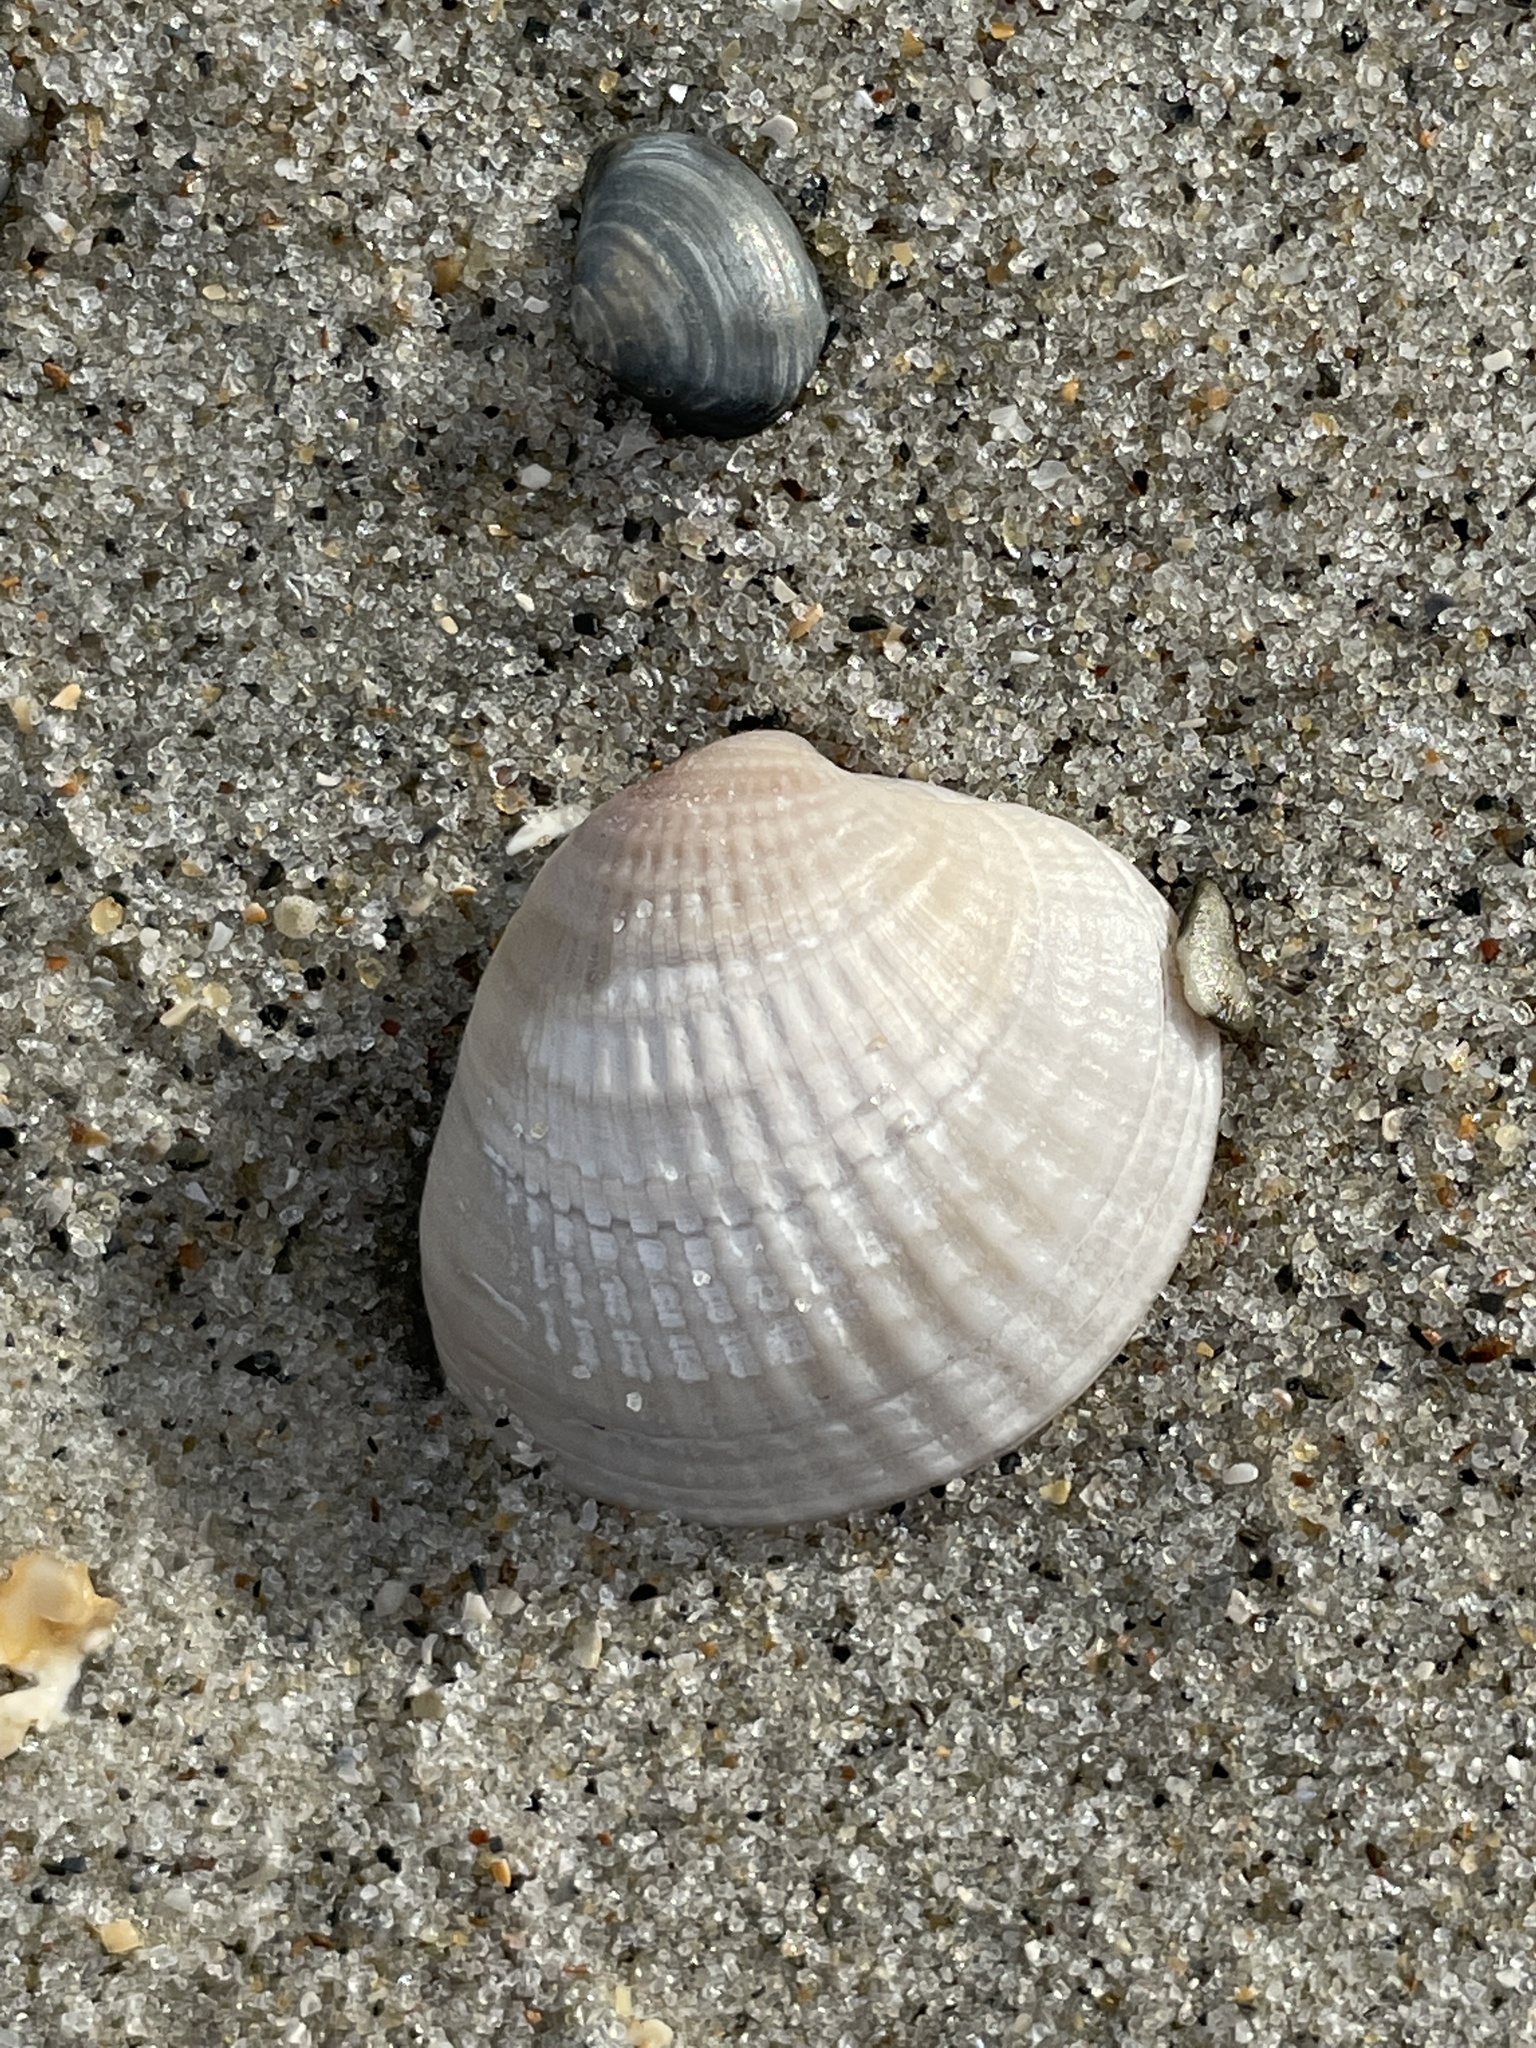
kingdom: Animalia
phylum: Mollusca
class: Bivalvia
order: Venerida
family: Veneridae
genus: Chione
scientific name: Chione elevata
